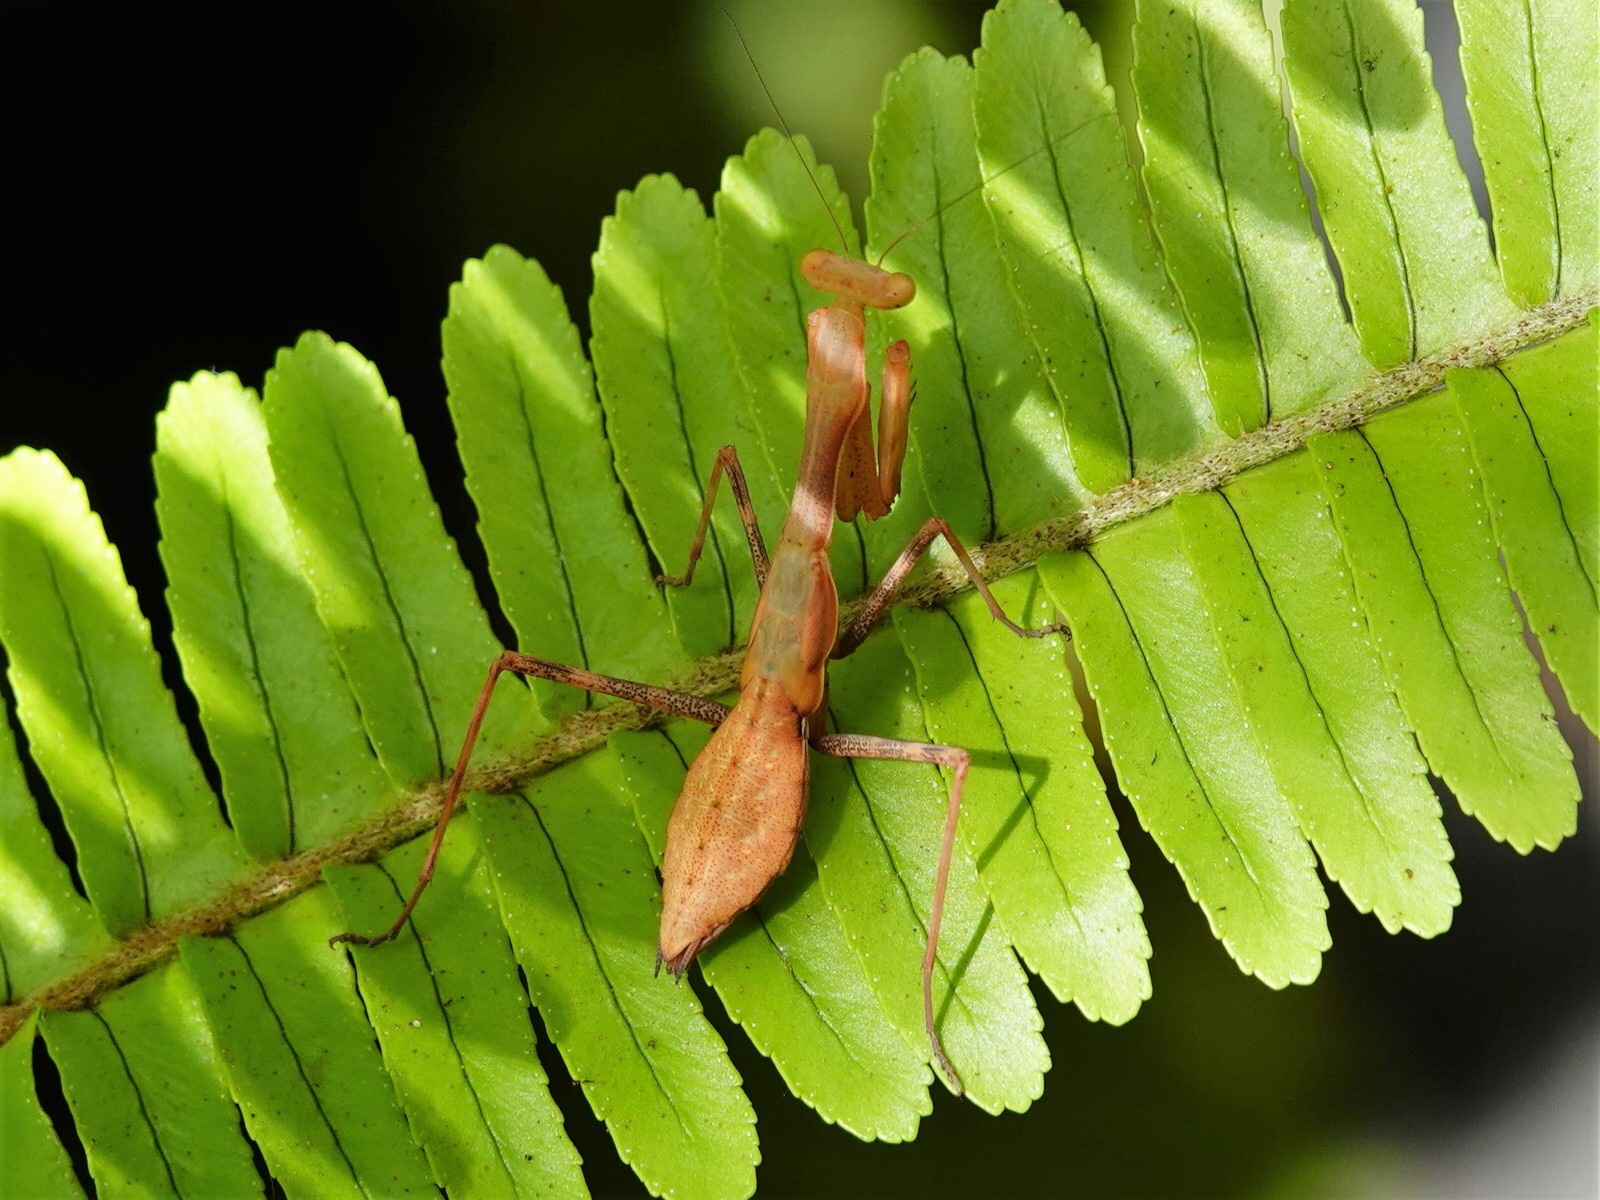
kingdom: Animalia
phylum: Arthropoda
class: Insecta
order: Mantodea
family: Miomantidae
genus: Miomantis
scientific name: Miomantis caffra
